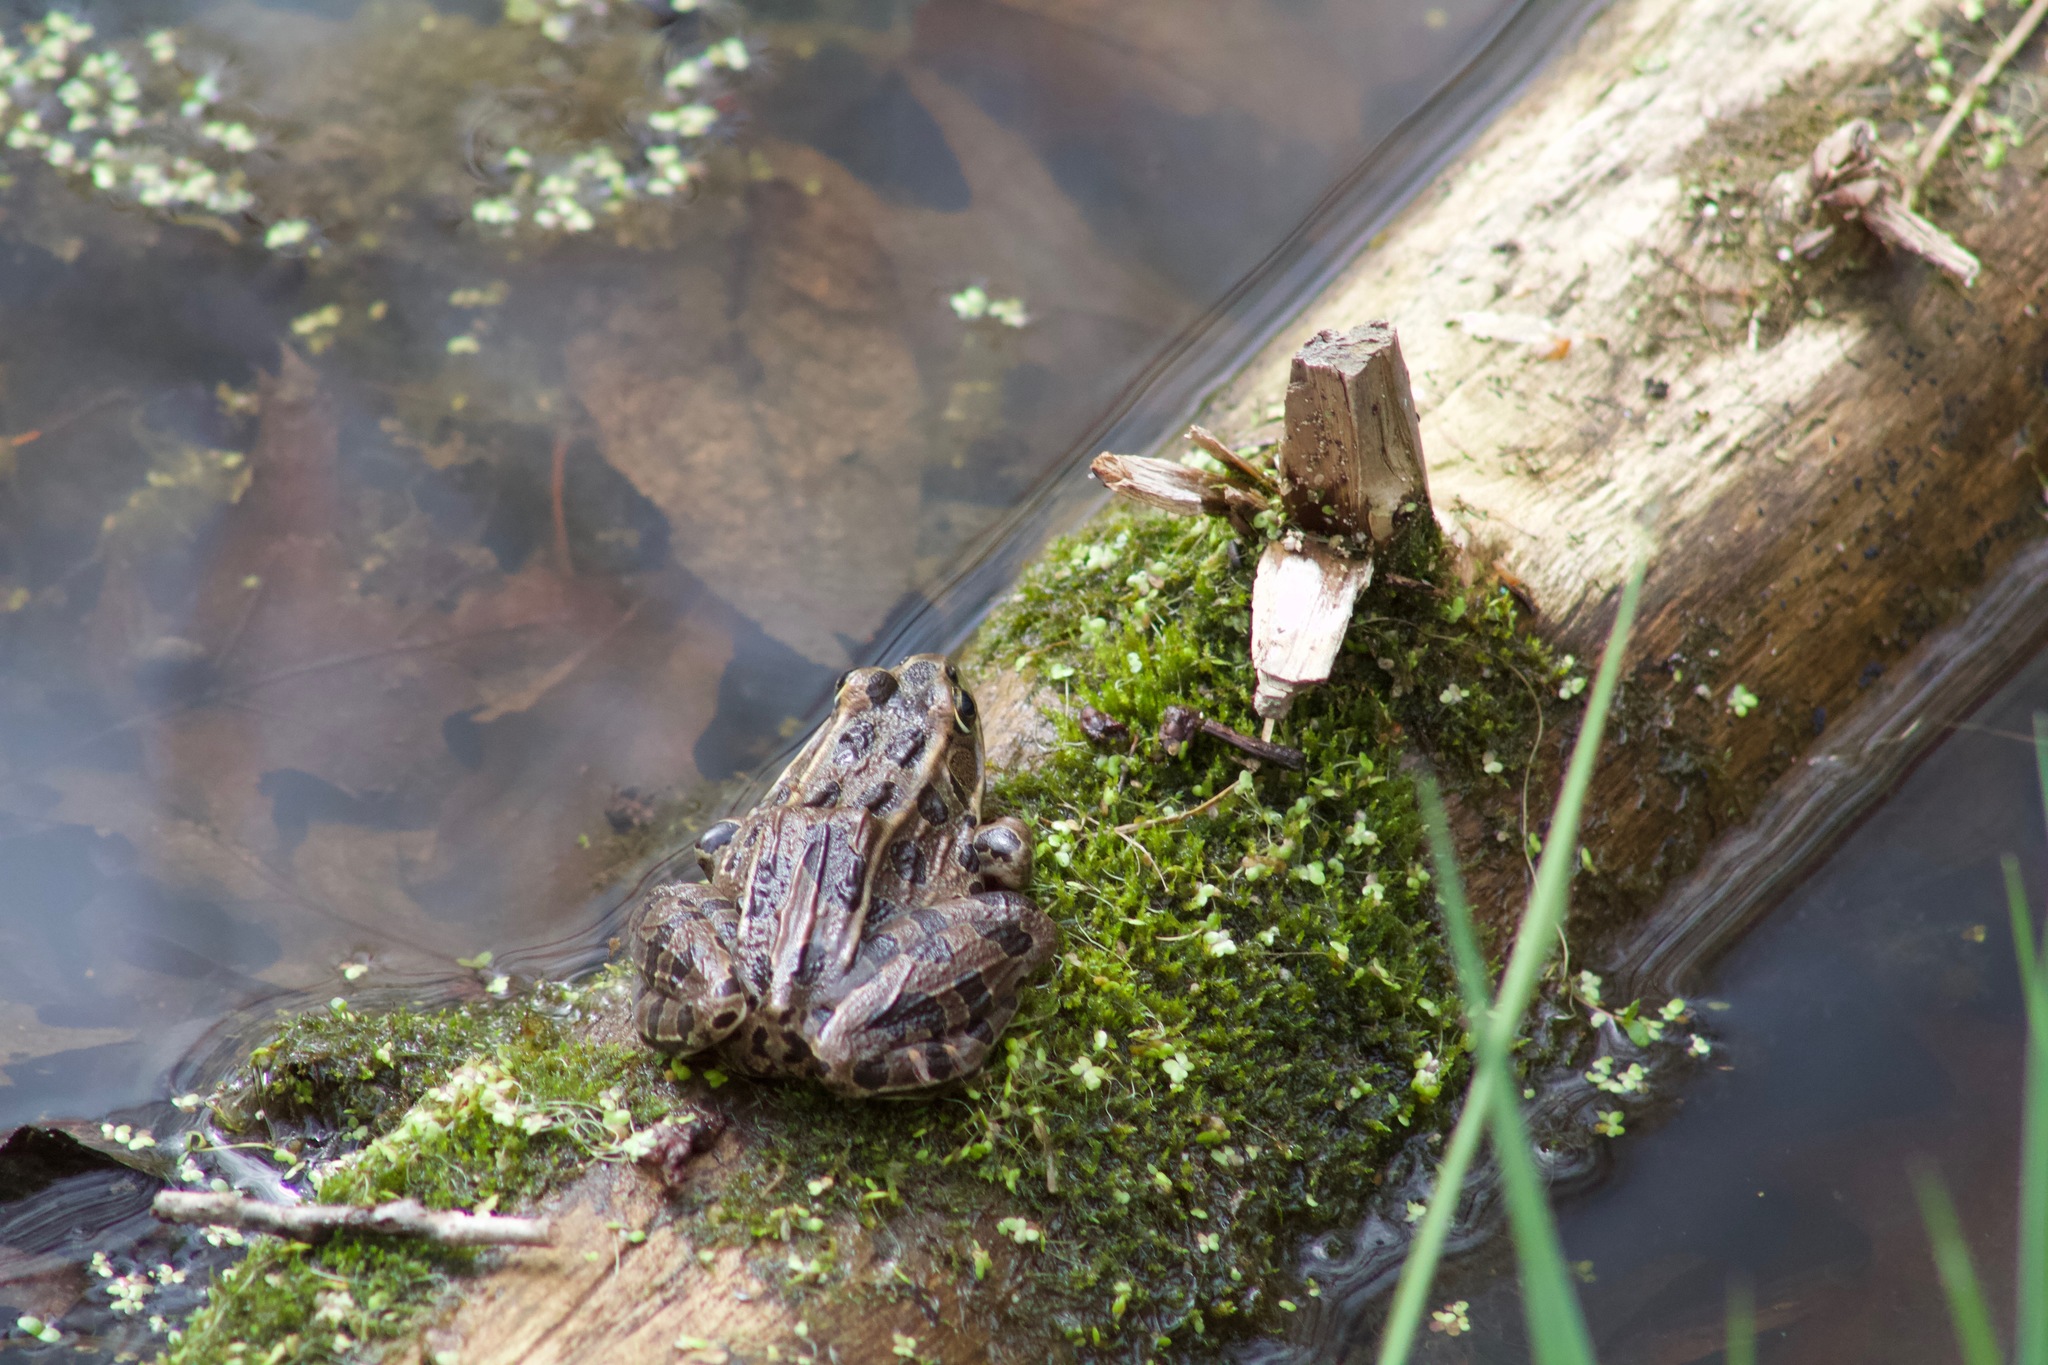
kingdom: Animalia
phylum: Chordata
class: Amphibia
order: Anura
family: Ranidae
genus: Lithobates
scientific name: Lithobates pipiens
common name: Northern leopard frog
